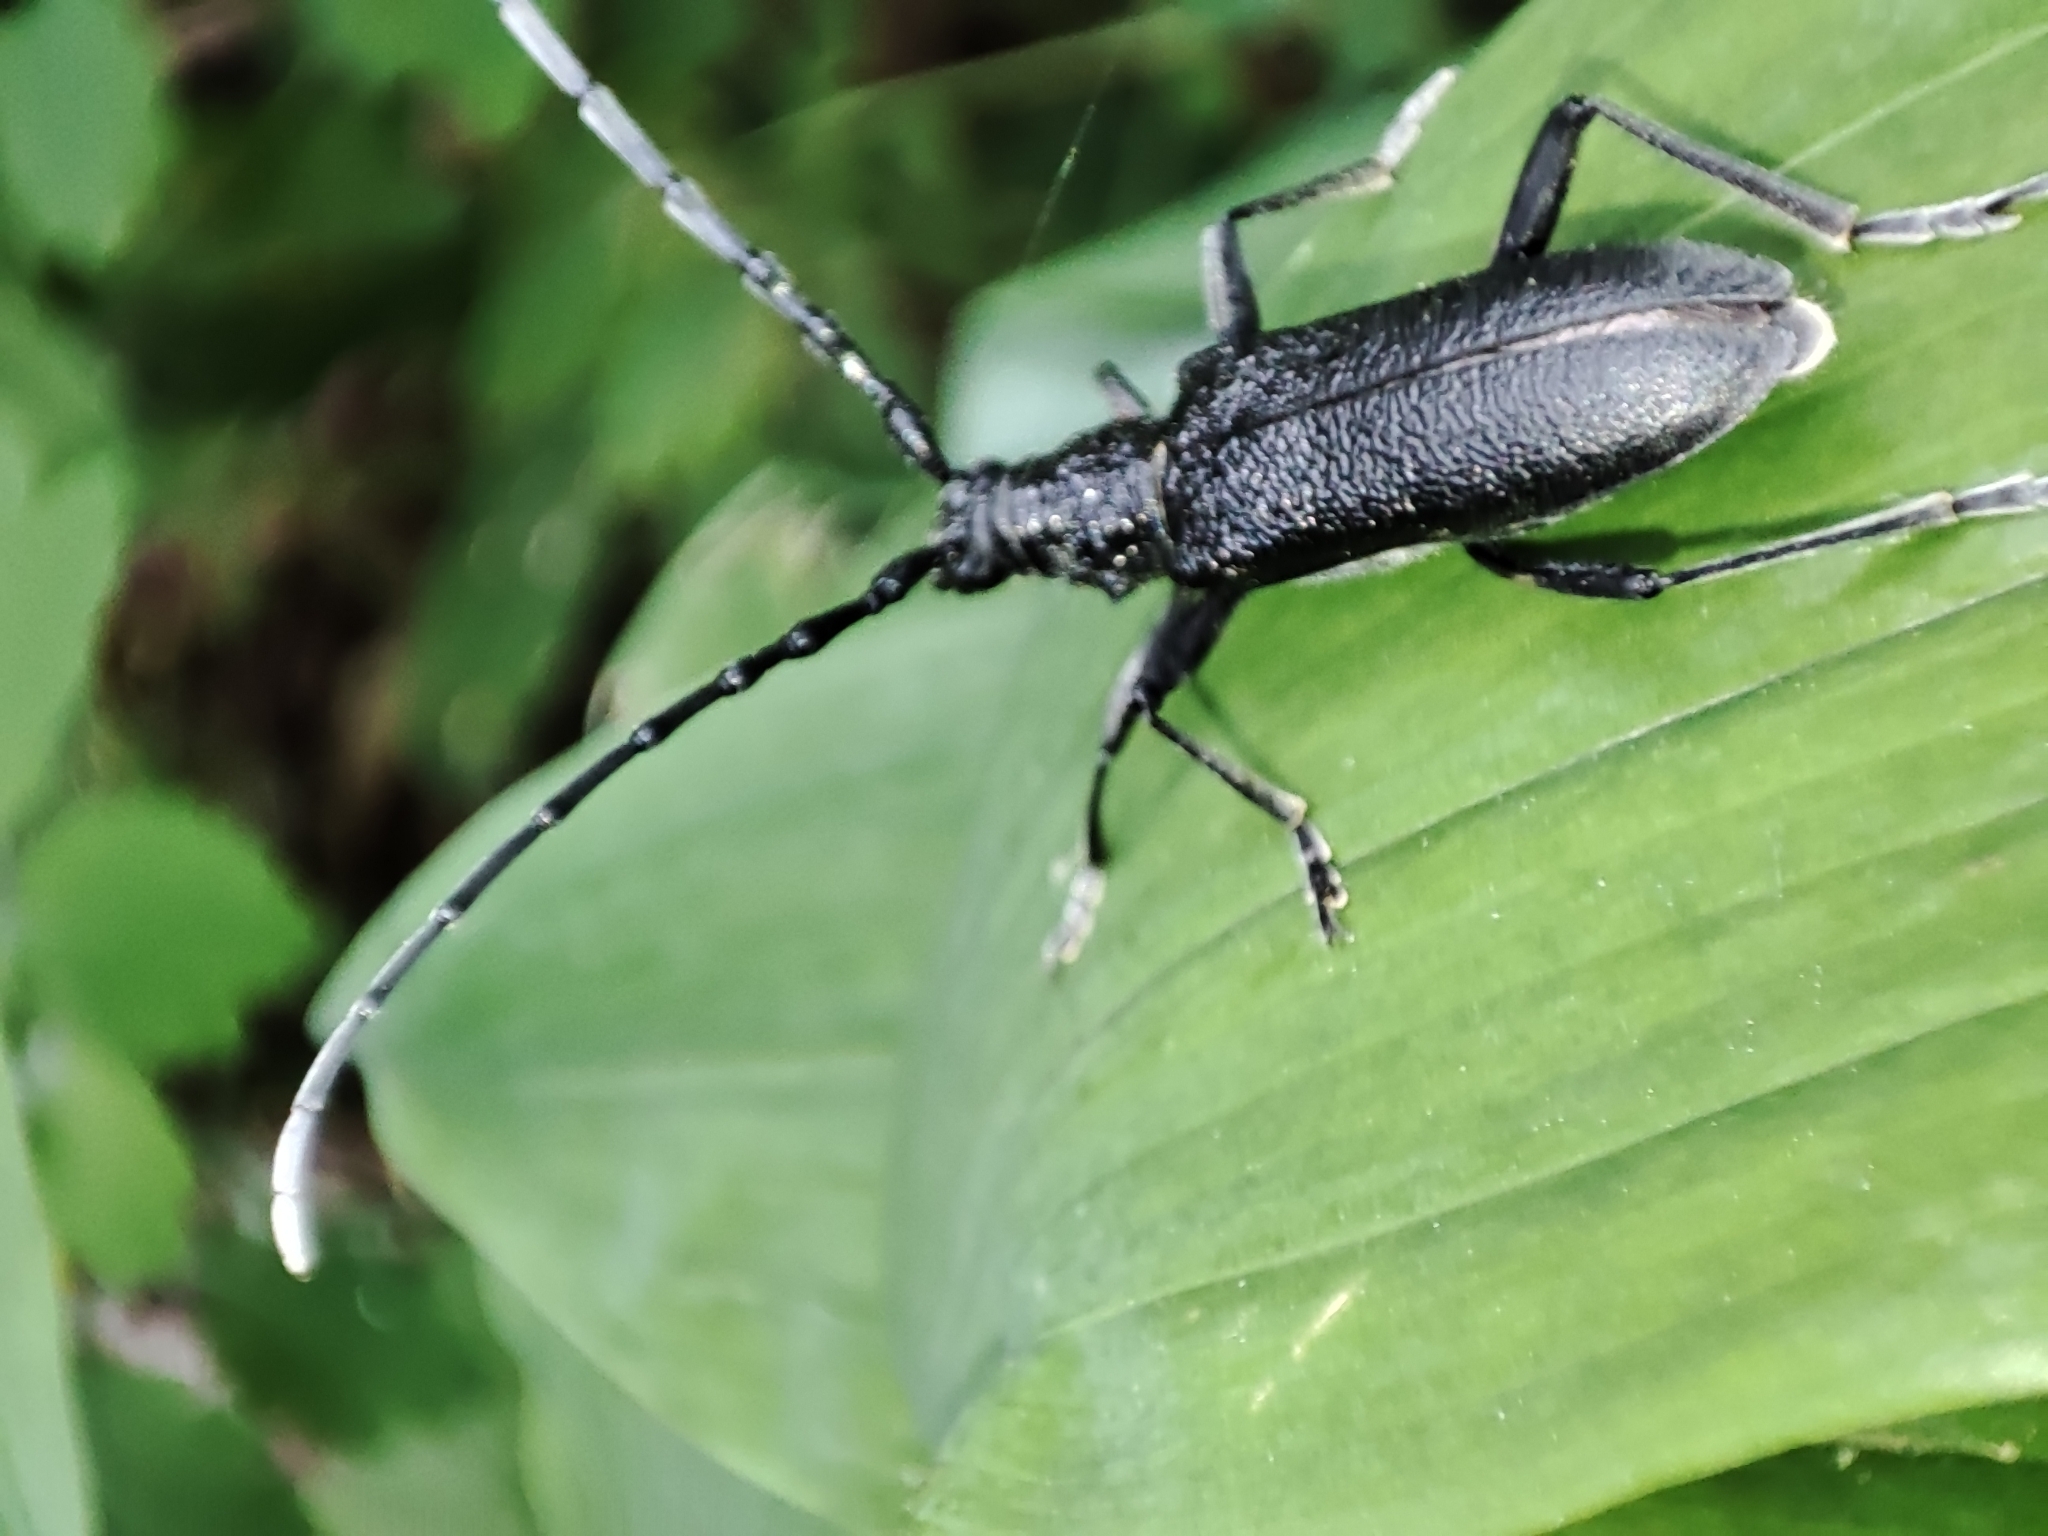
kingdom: Animalia
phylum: Arthropoda
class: Insecta
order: Coleoptera
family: Cerambycidae
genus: Cerambyx
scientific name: Cerambyx scopolii
